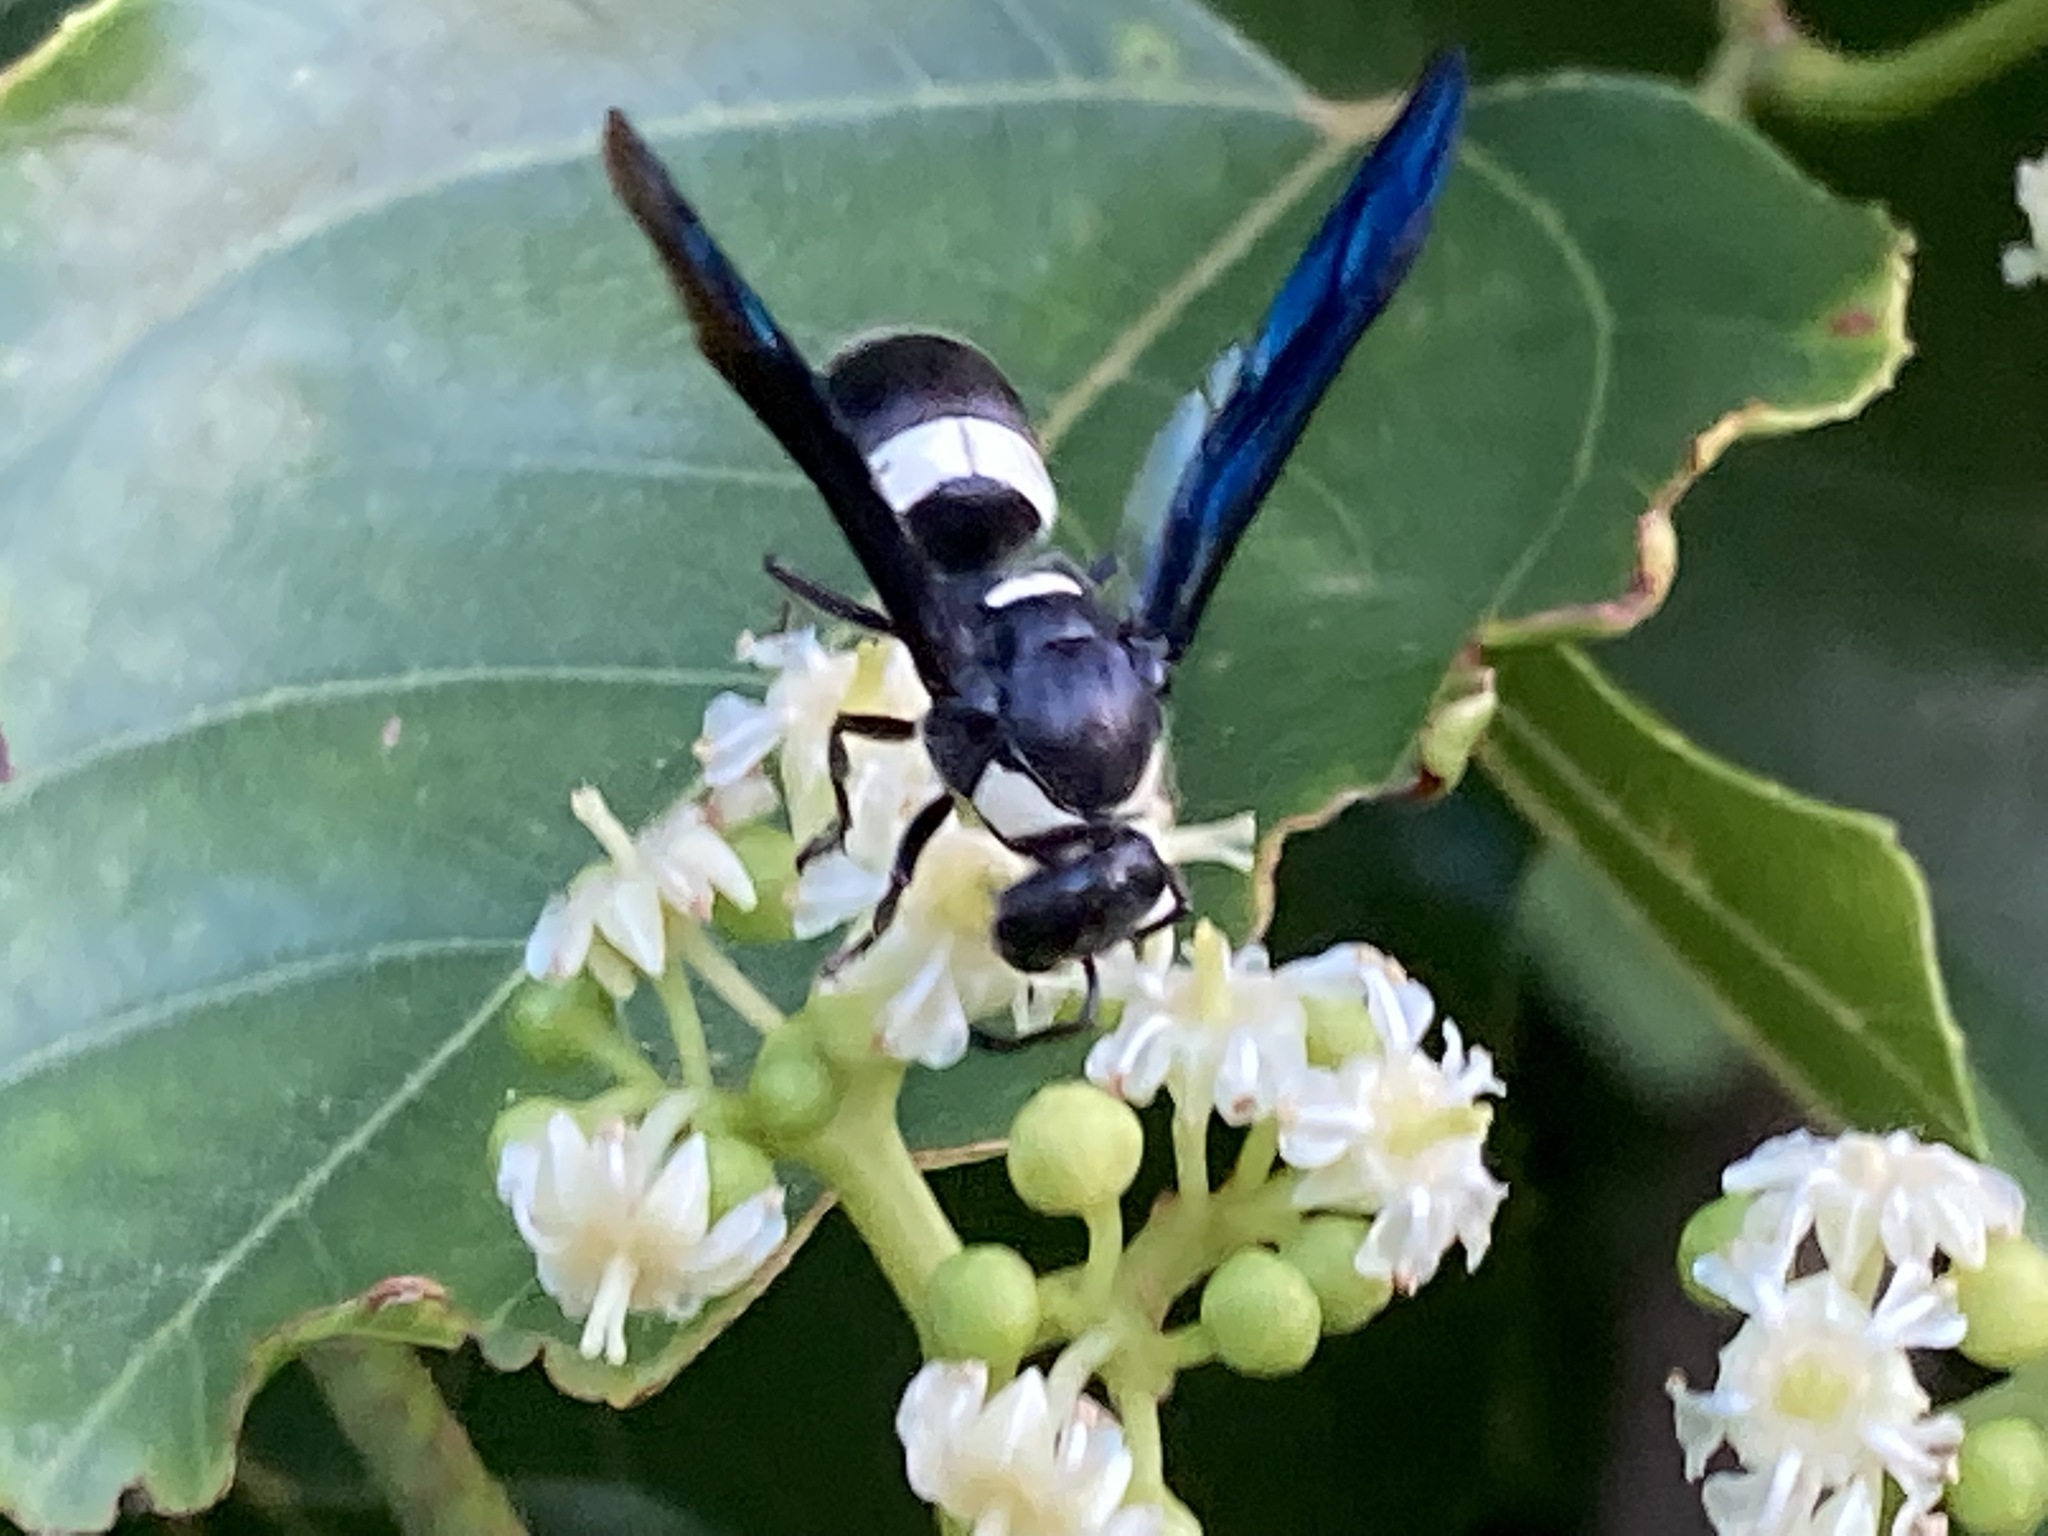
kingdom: Animalia
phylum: Arthropoda
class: Insecta
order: Hymenoptera
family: Eumenidae
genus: Monobia
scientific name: Monobia quadridens
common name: Four-toothed mason wasp
